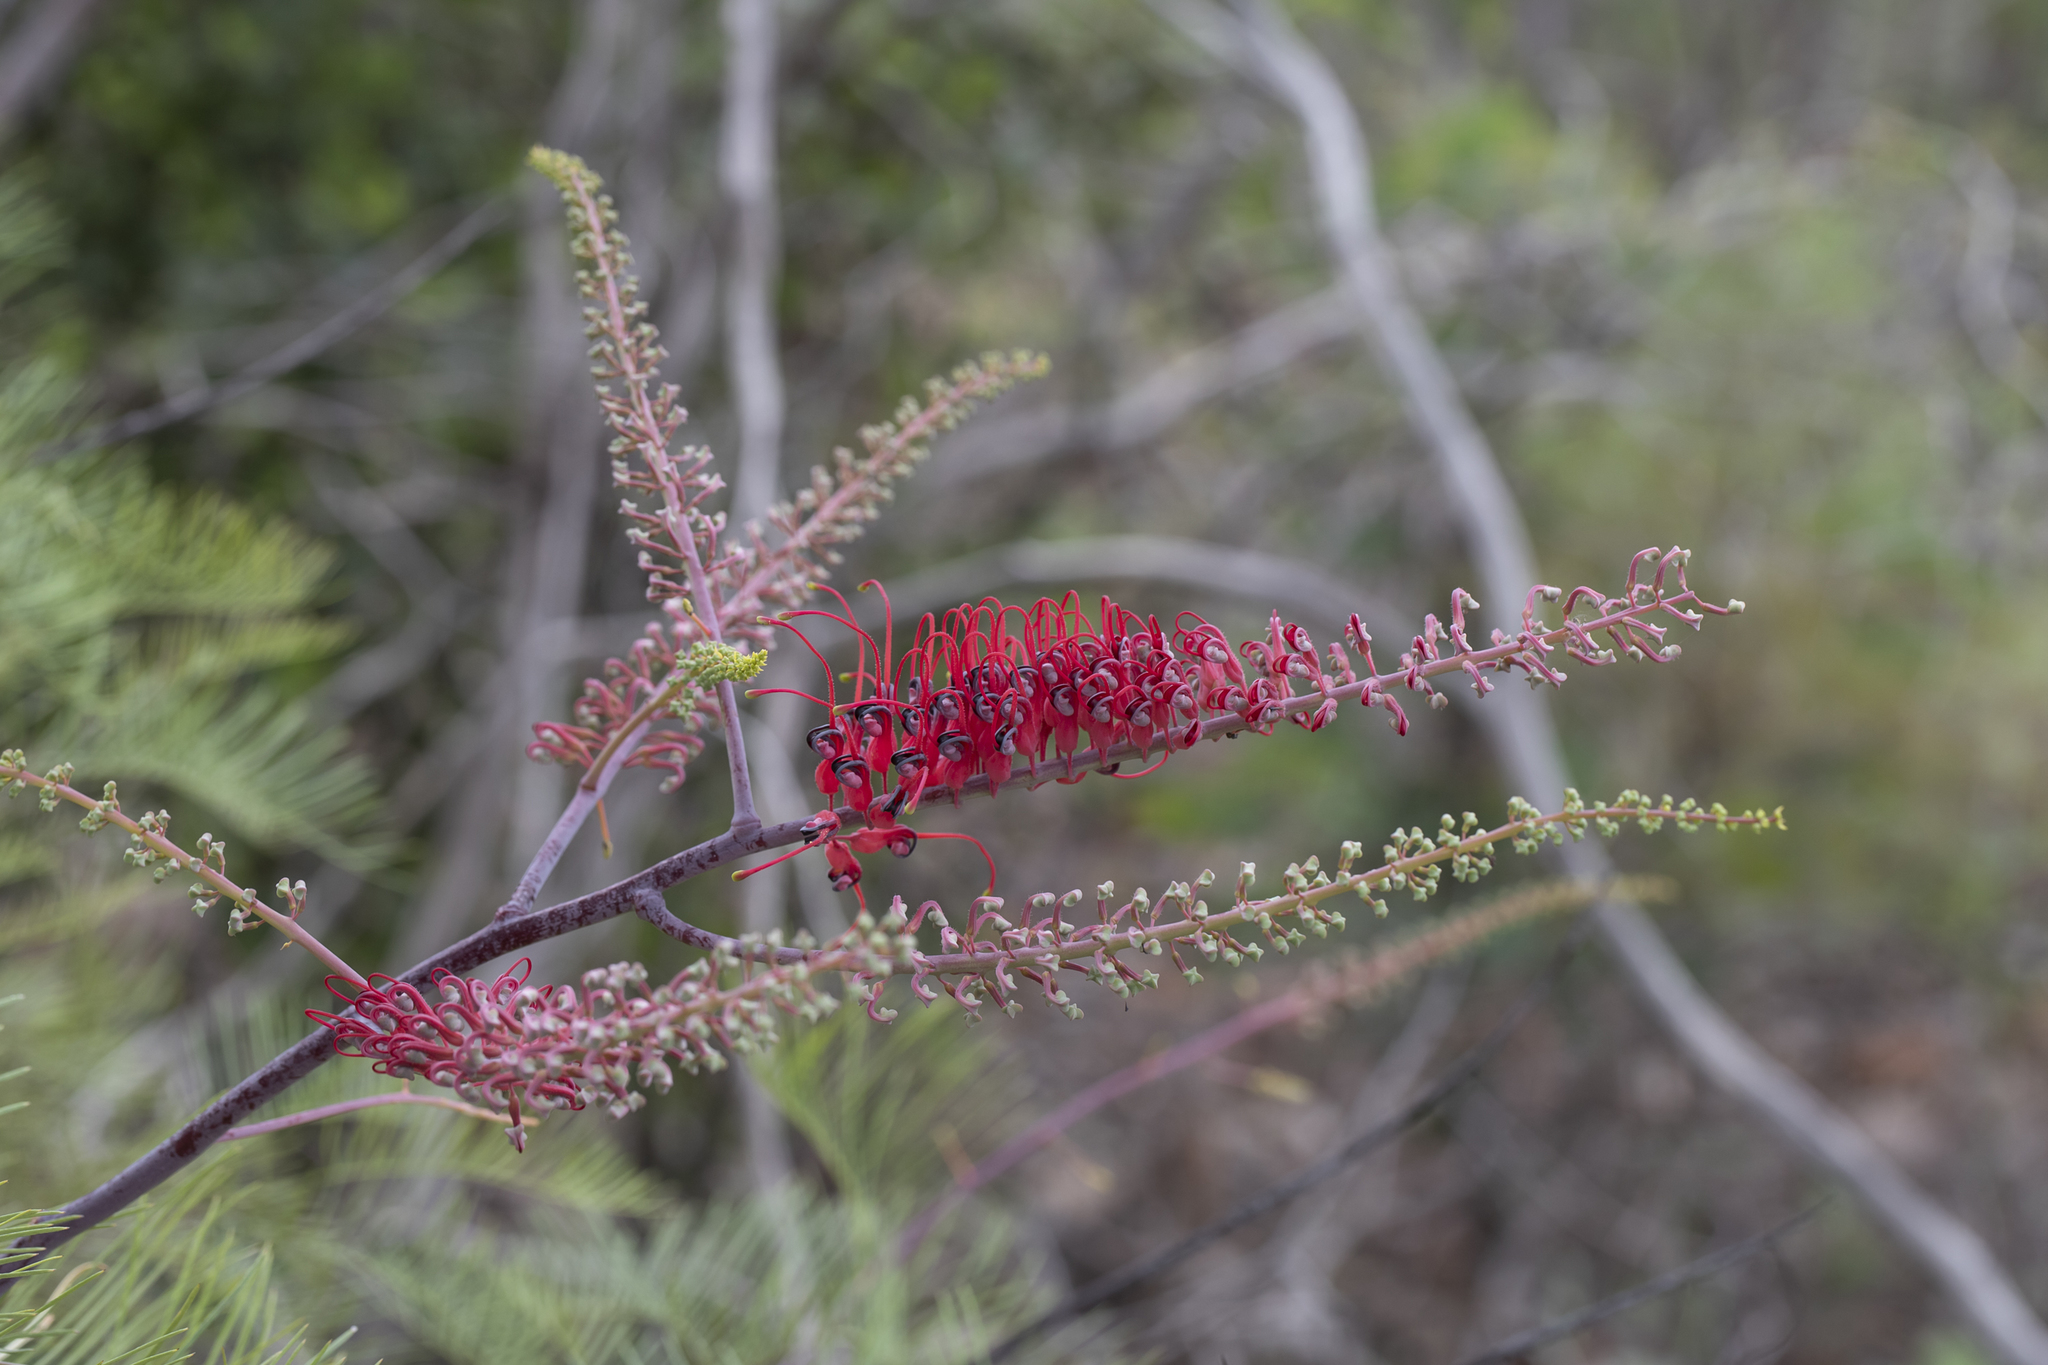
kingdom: Plantae
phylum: Tracheophyta
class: Magnoliopsida
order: Proteales
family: Proteaceae
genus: Grevillea
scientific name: Grevillea dryandri
